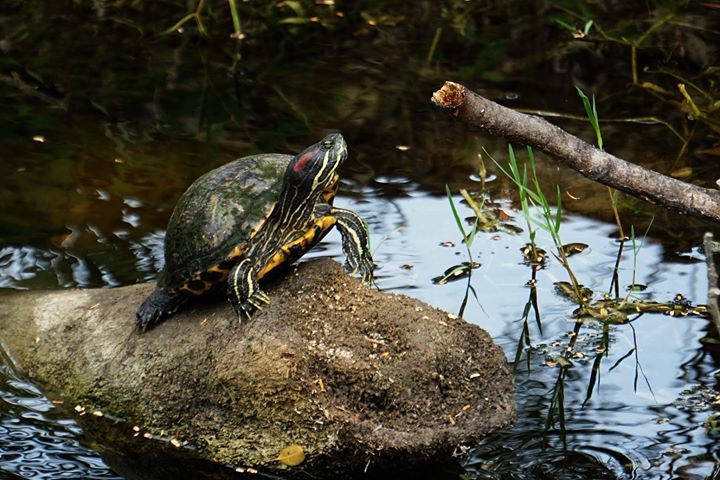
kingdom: Animalia
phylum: Chordata
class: Testudines
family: Emydidae
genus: Trachemys
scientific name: Trachemys scripta
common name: Slider
